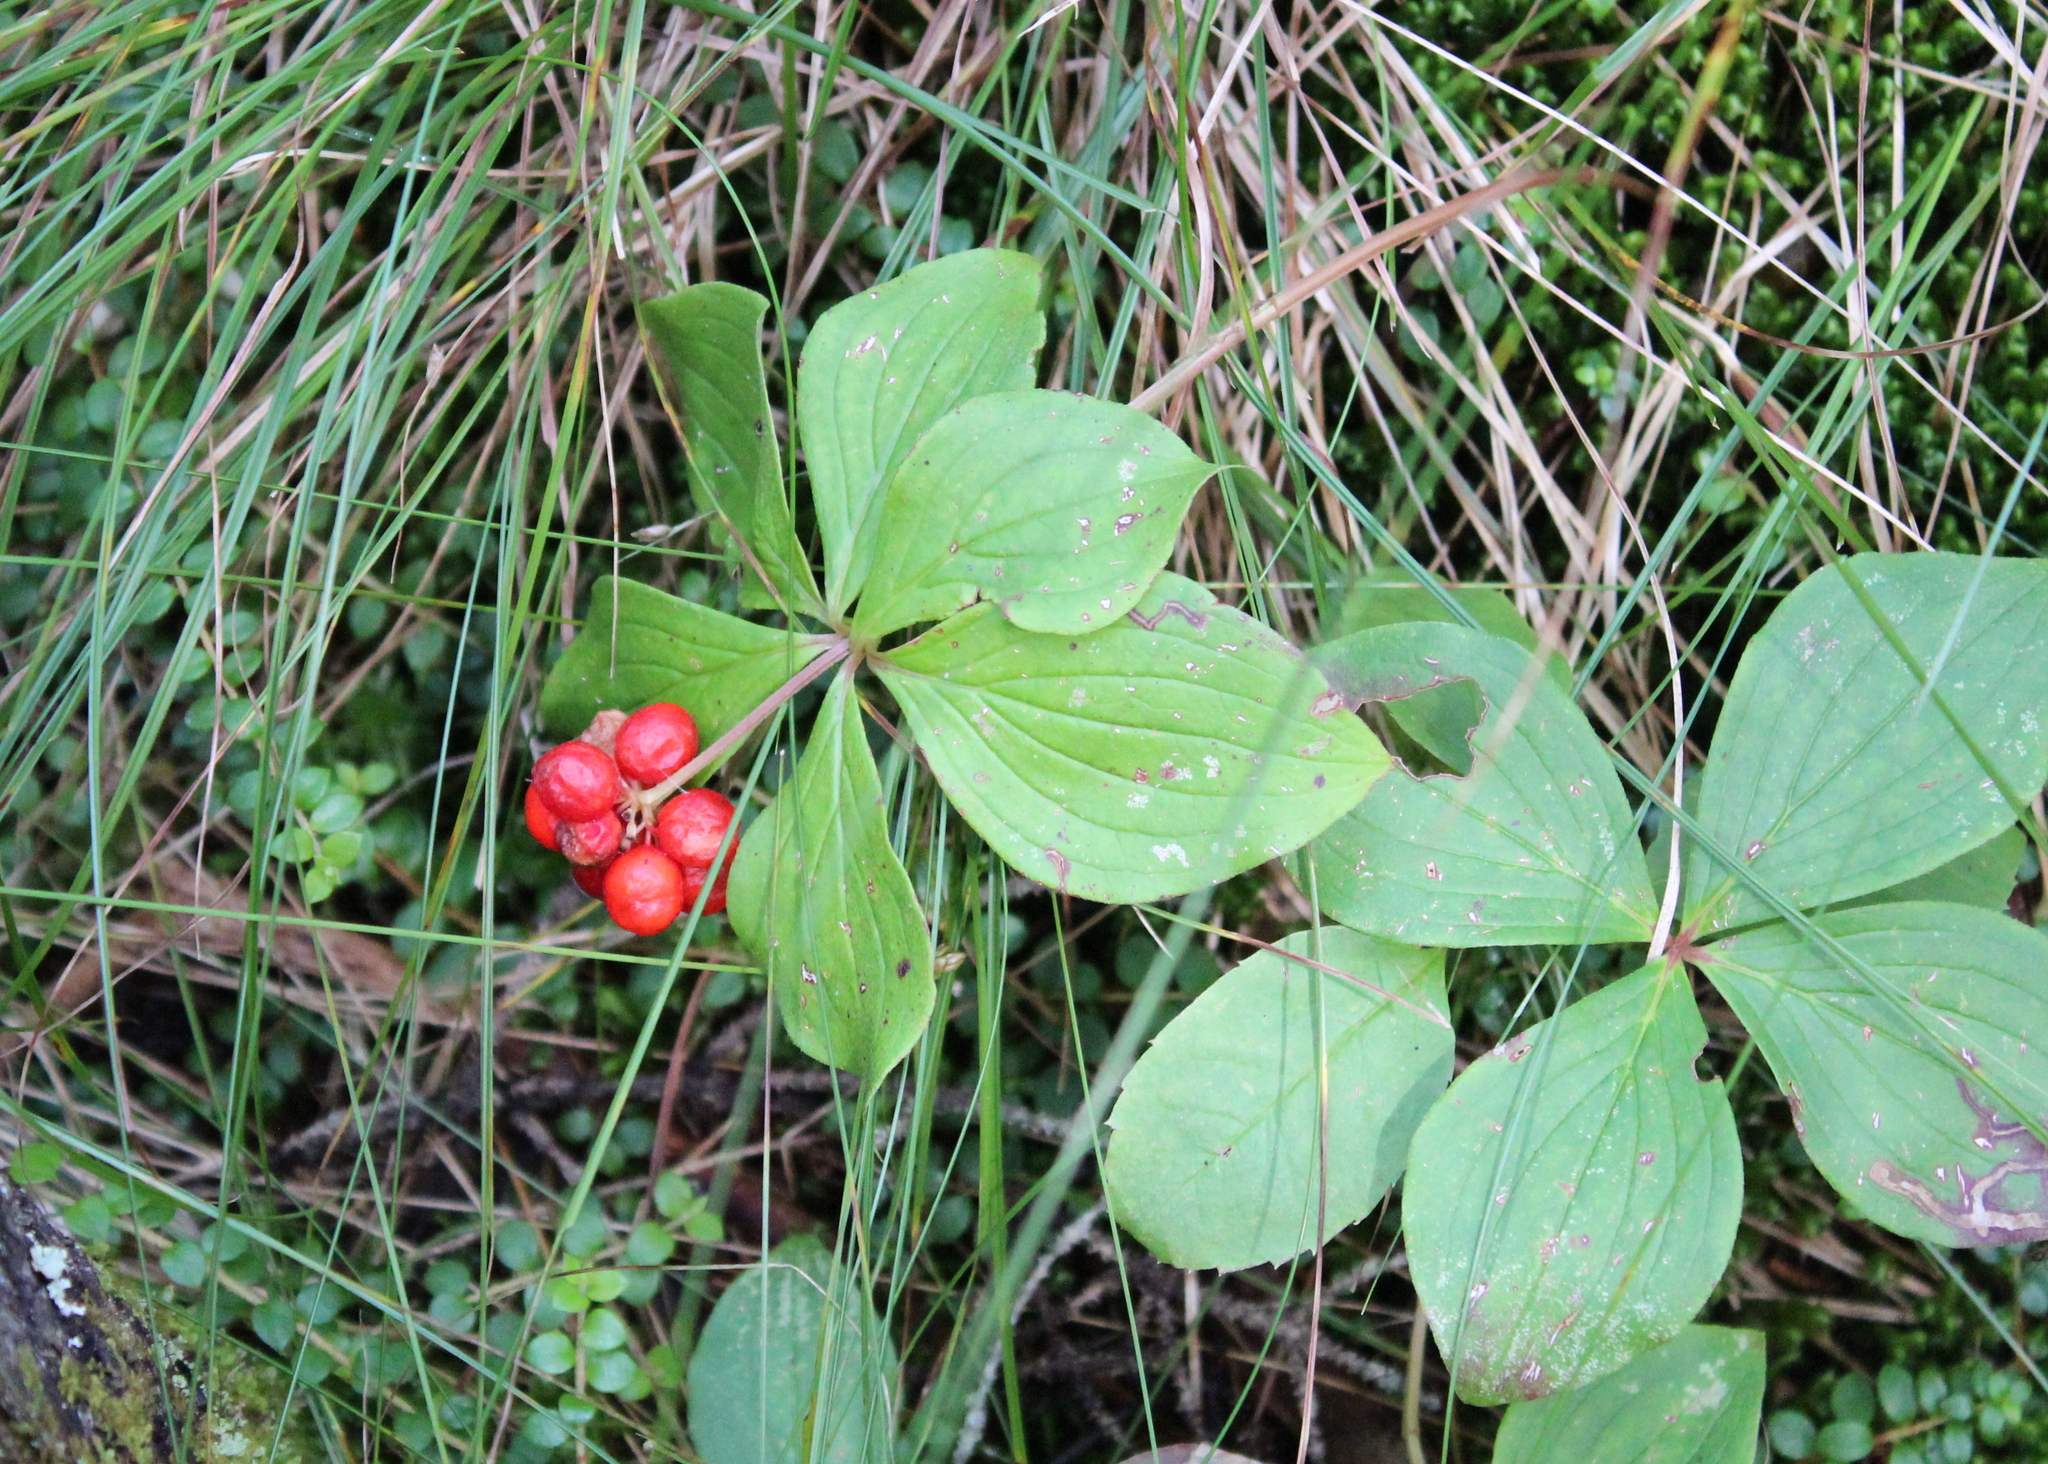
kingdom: Plantae
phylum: Tracheophyta
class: Magnoliopsida
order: Cornales
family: Cornaceae
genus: Cornus
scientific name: Cornus canadensis
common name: Creeping dogwood
